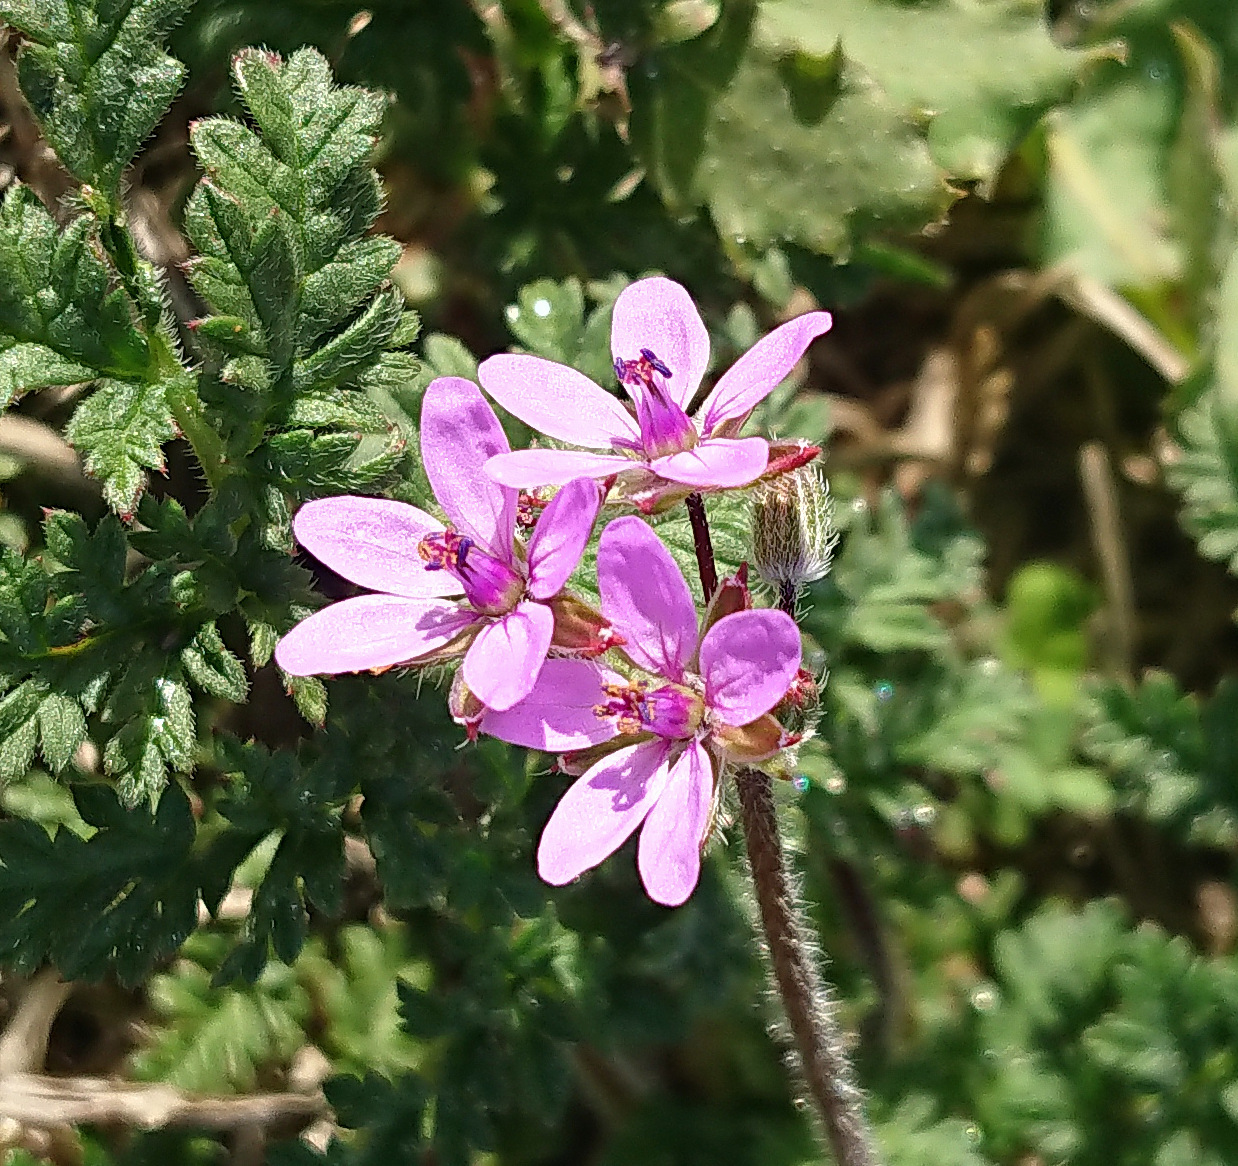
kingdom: Plantae
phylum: Tracheophyta
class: Magnoliopsida
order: Geraniales
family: Geraniaceae
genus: Erodium
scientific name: Erodium cicutarium
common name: Common stork's-bill
